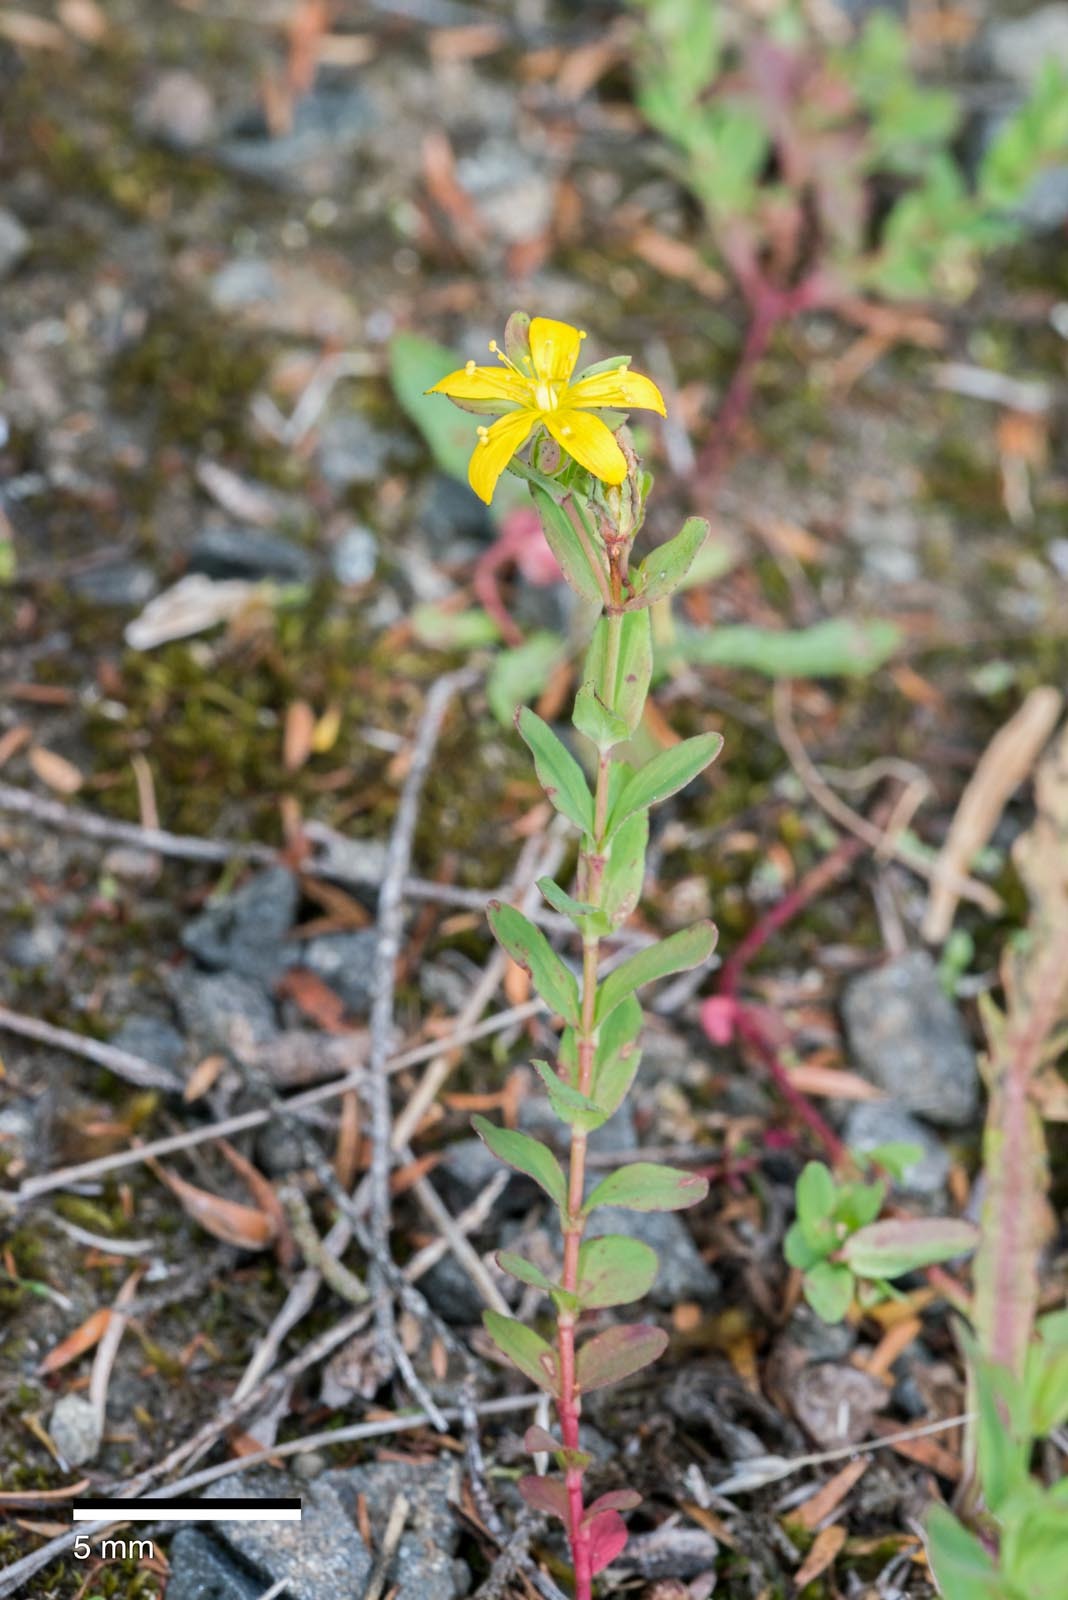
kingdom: Plantae
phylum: Tracheophyta
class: Magnoliopsida
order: Malpighiales
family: Hypericaceae
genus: Hypericum
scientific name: Hypericum humifusum
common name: Trailing st. john's-wort
